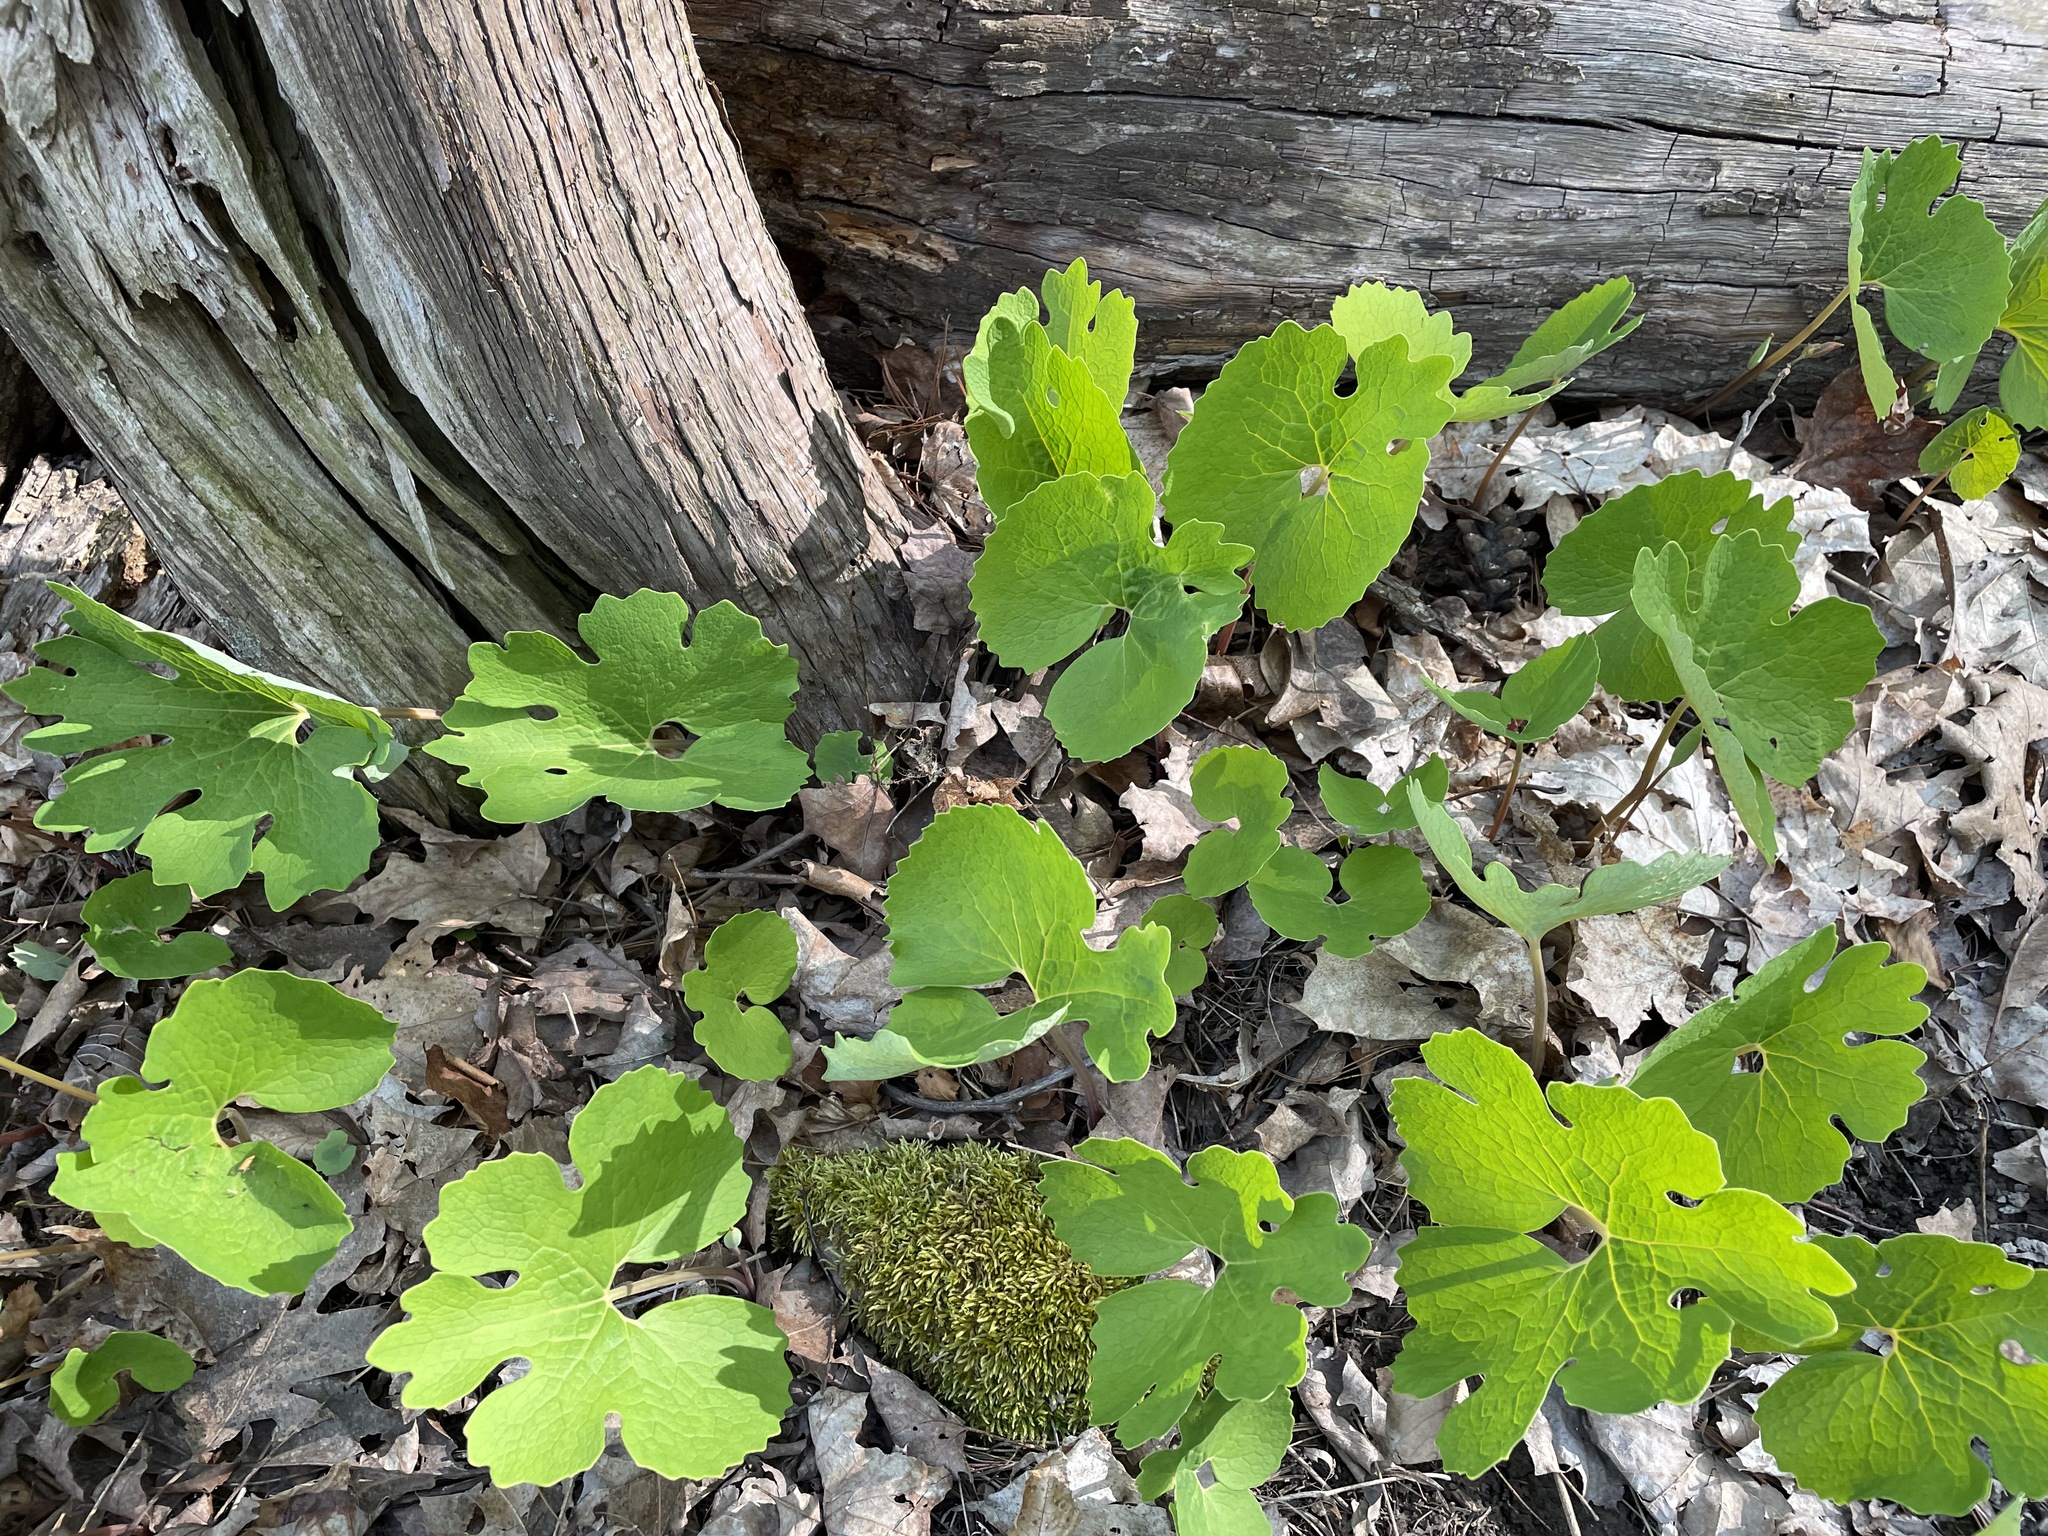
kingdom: Plantae
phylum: Tracheophyta
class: Magnoliopsida
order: Ranunculales
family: Papaveraceae
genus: Sanguinaria
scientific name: Sanguinaria canadensis
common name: Bloodroot
